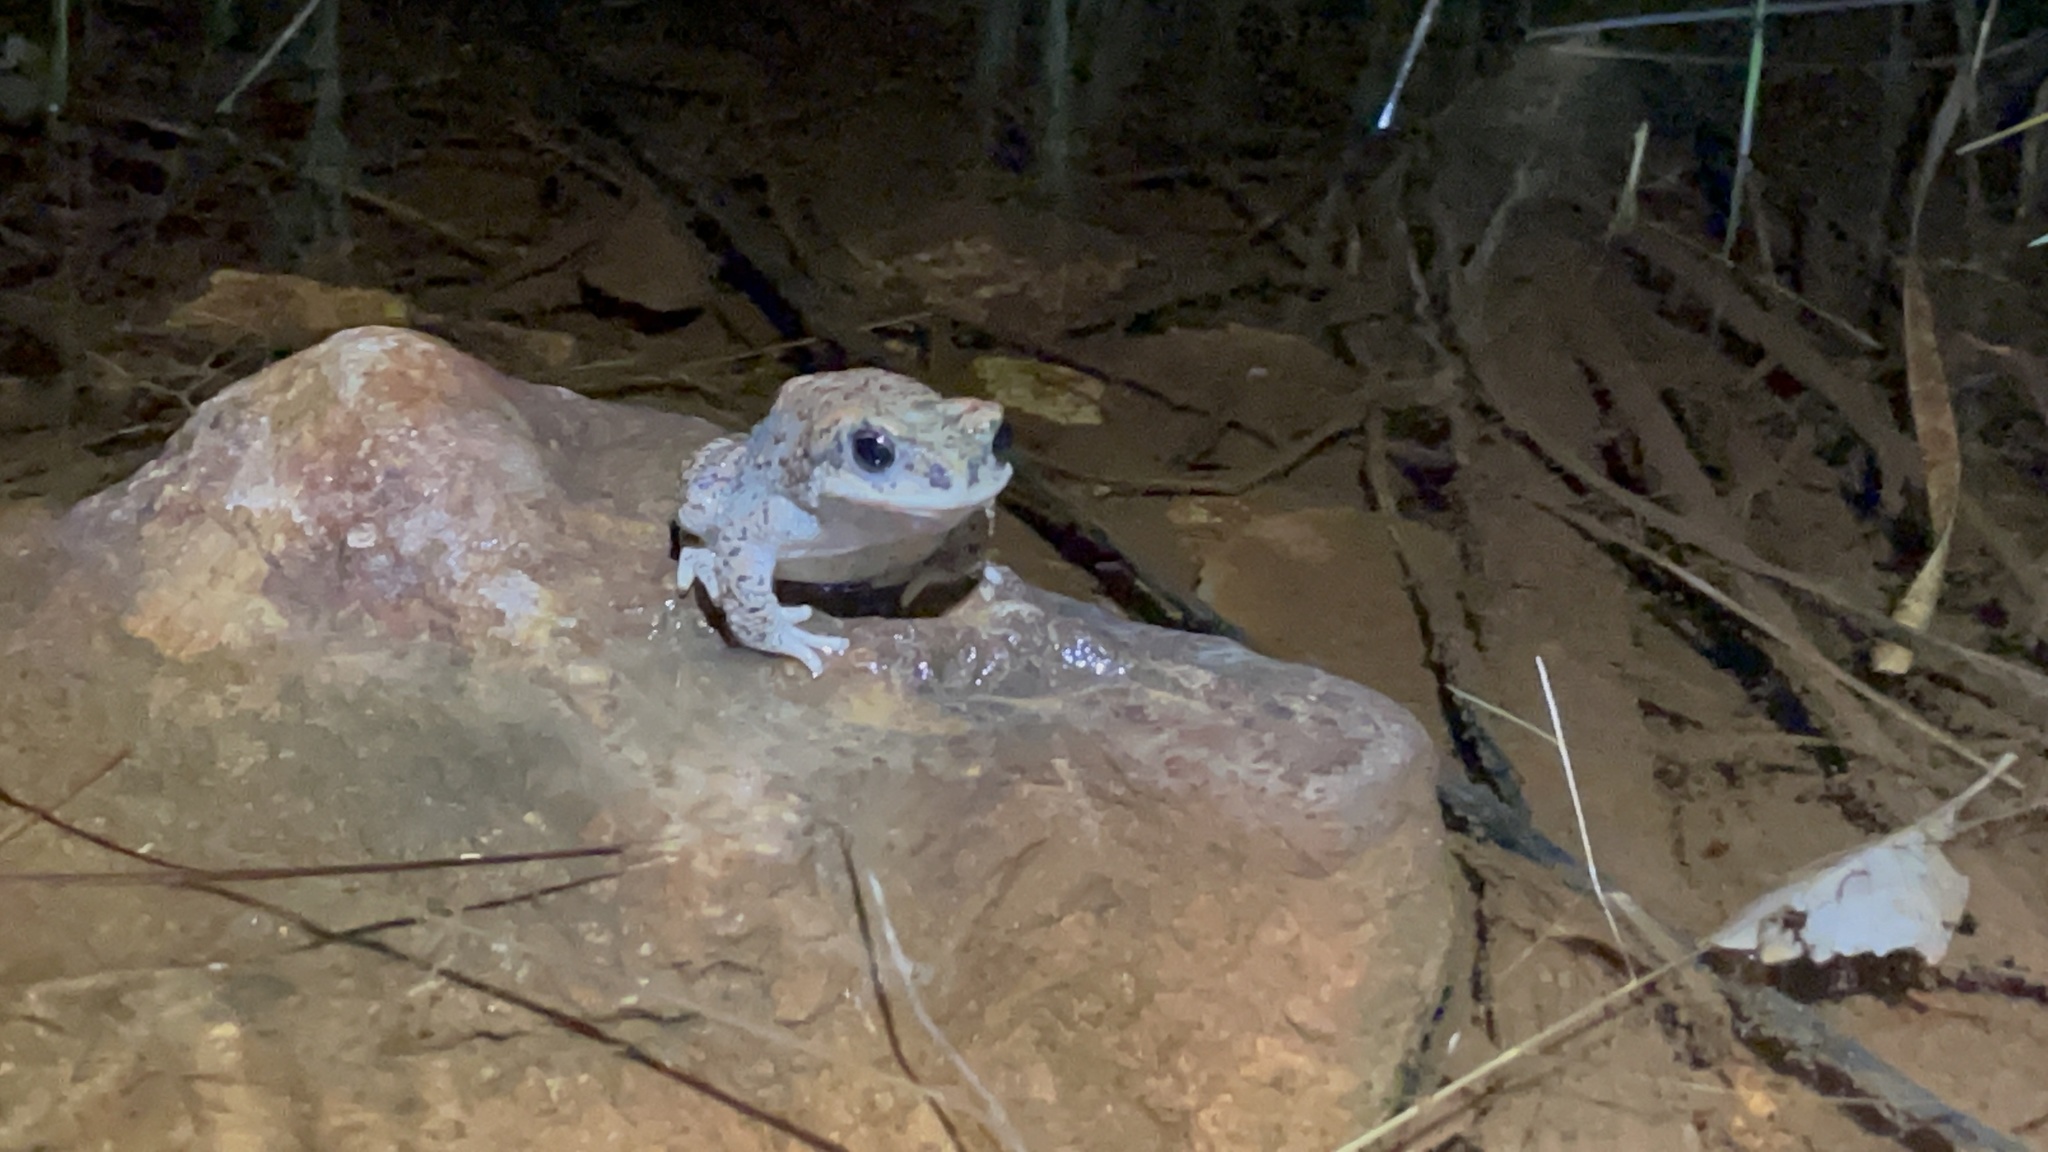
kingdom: Animalia
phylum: Chordata
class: Amphibia
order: Anura
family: Bufonidae
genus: Anaxyrus
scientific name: Anaxyrus punctatus
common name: Red-spotted toad
